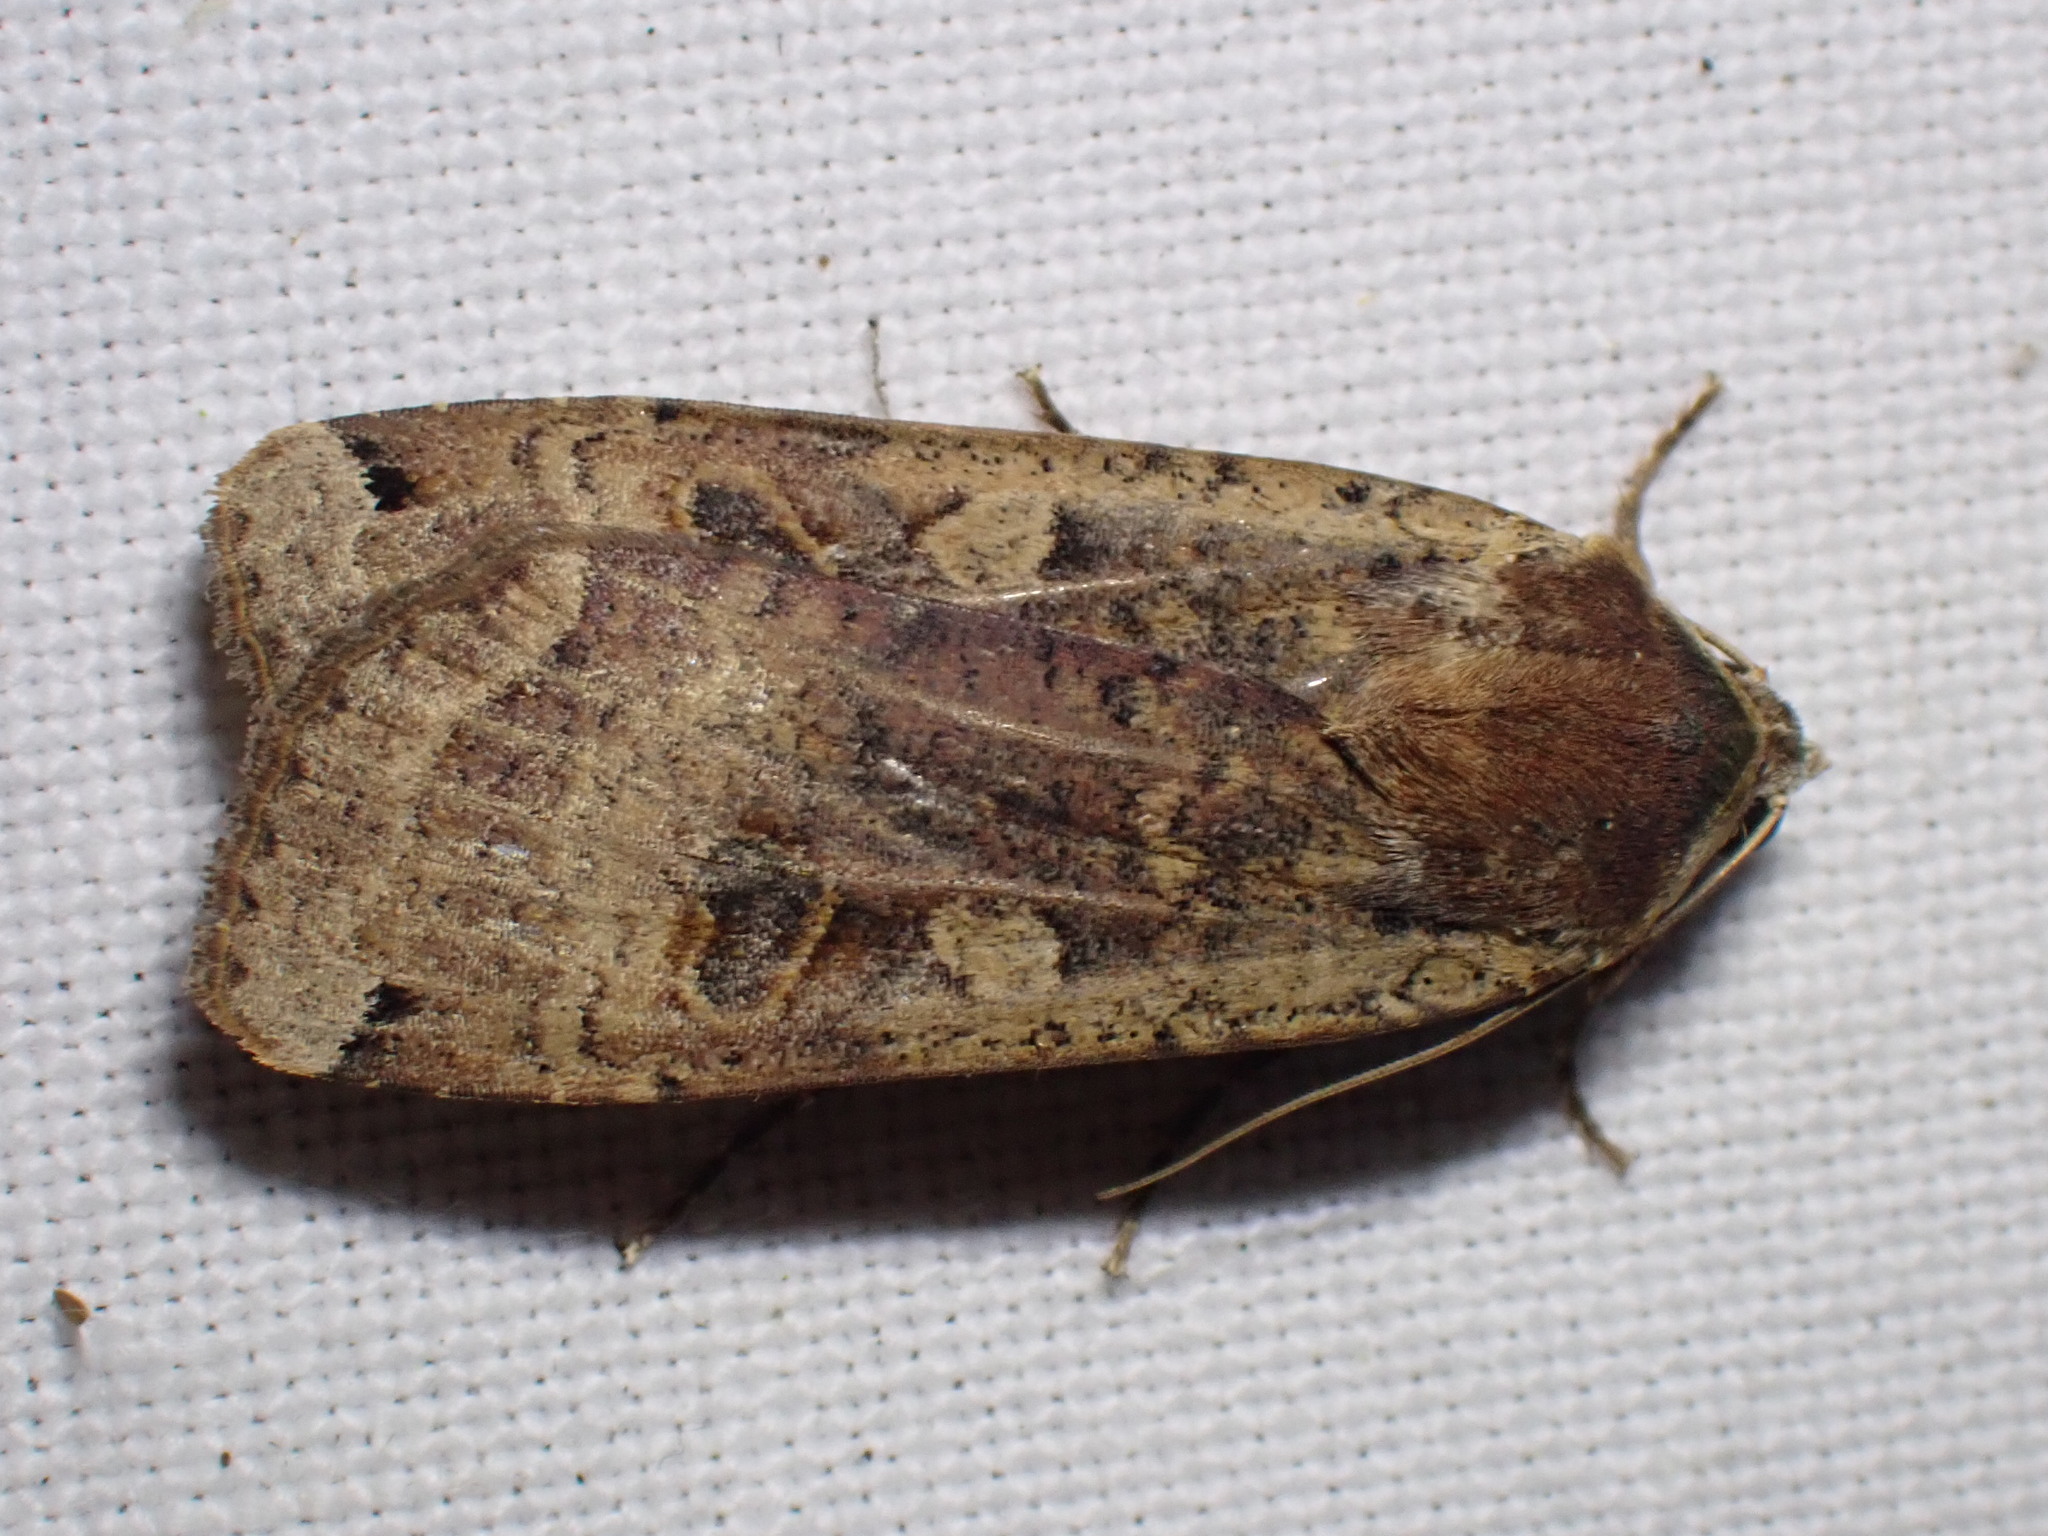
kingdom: Animalia
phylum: Arthropoda
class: Insecta
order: Lepidoptera
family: Noctuidae
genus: Noctua
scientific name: Noctua pronuba
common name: Large yellow underwing
